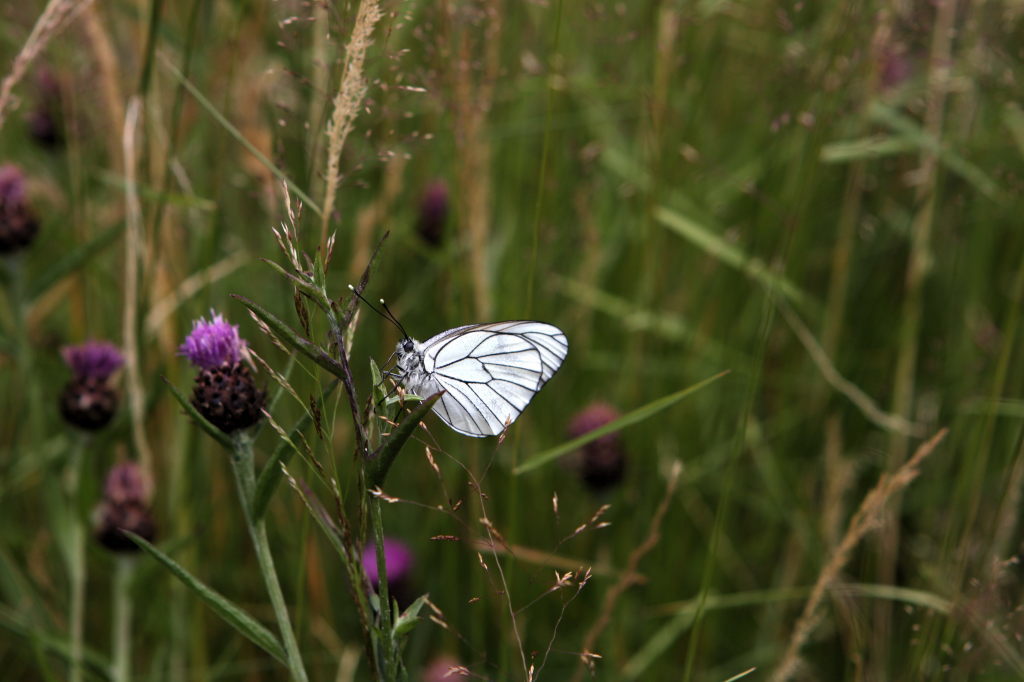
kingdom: Animalia
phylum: Arthropoda
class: Insecta
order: Lepidoptera
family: Pieridae
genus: Aporia
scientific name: Aporia crataegi
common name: Black-veined white
